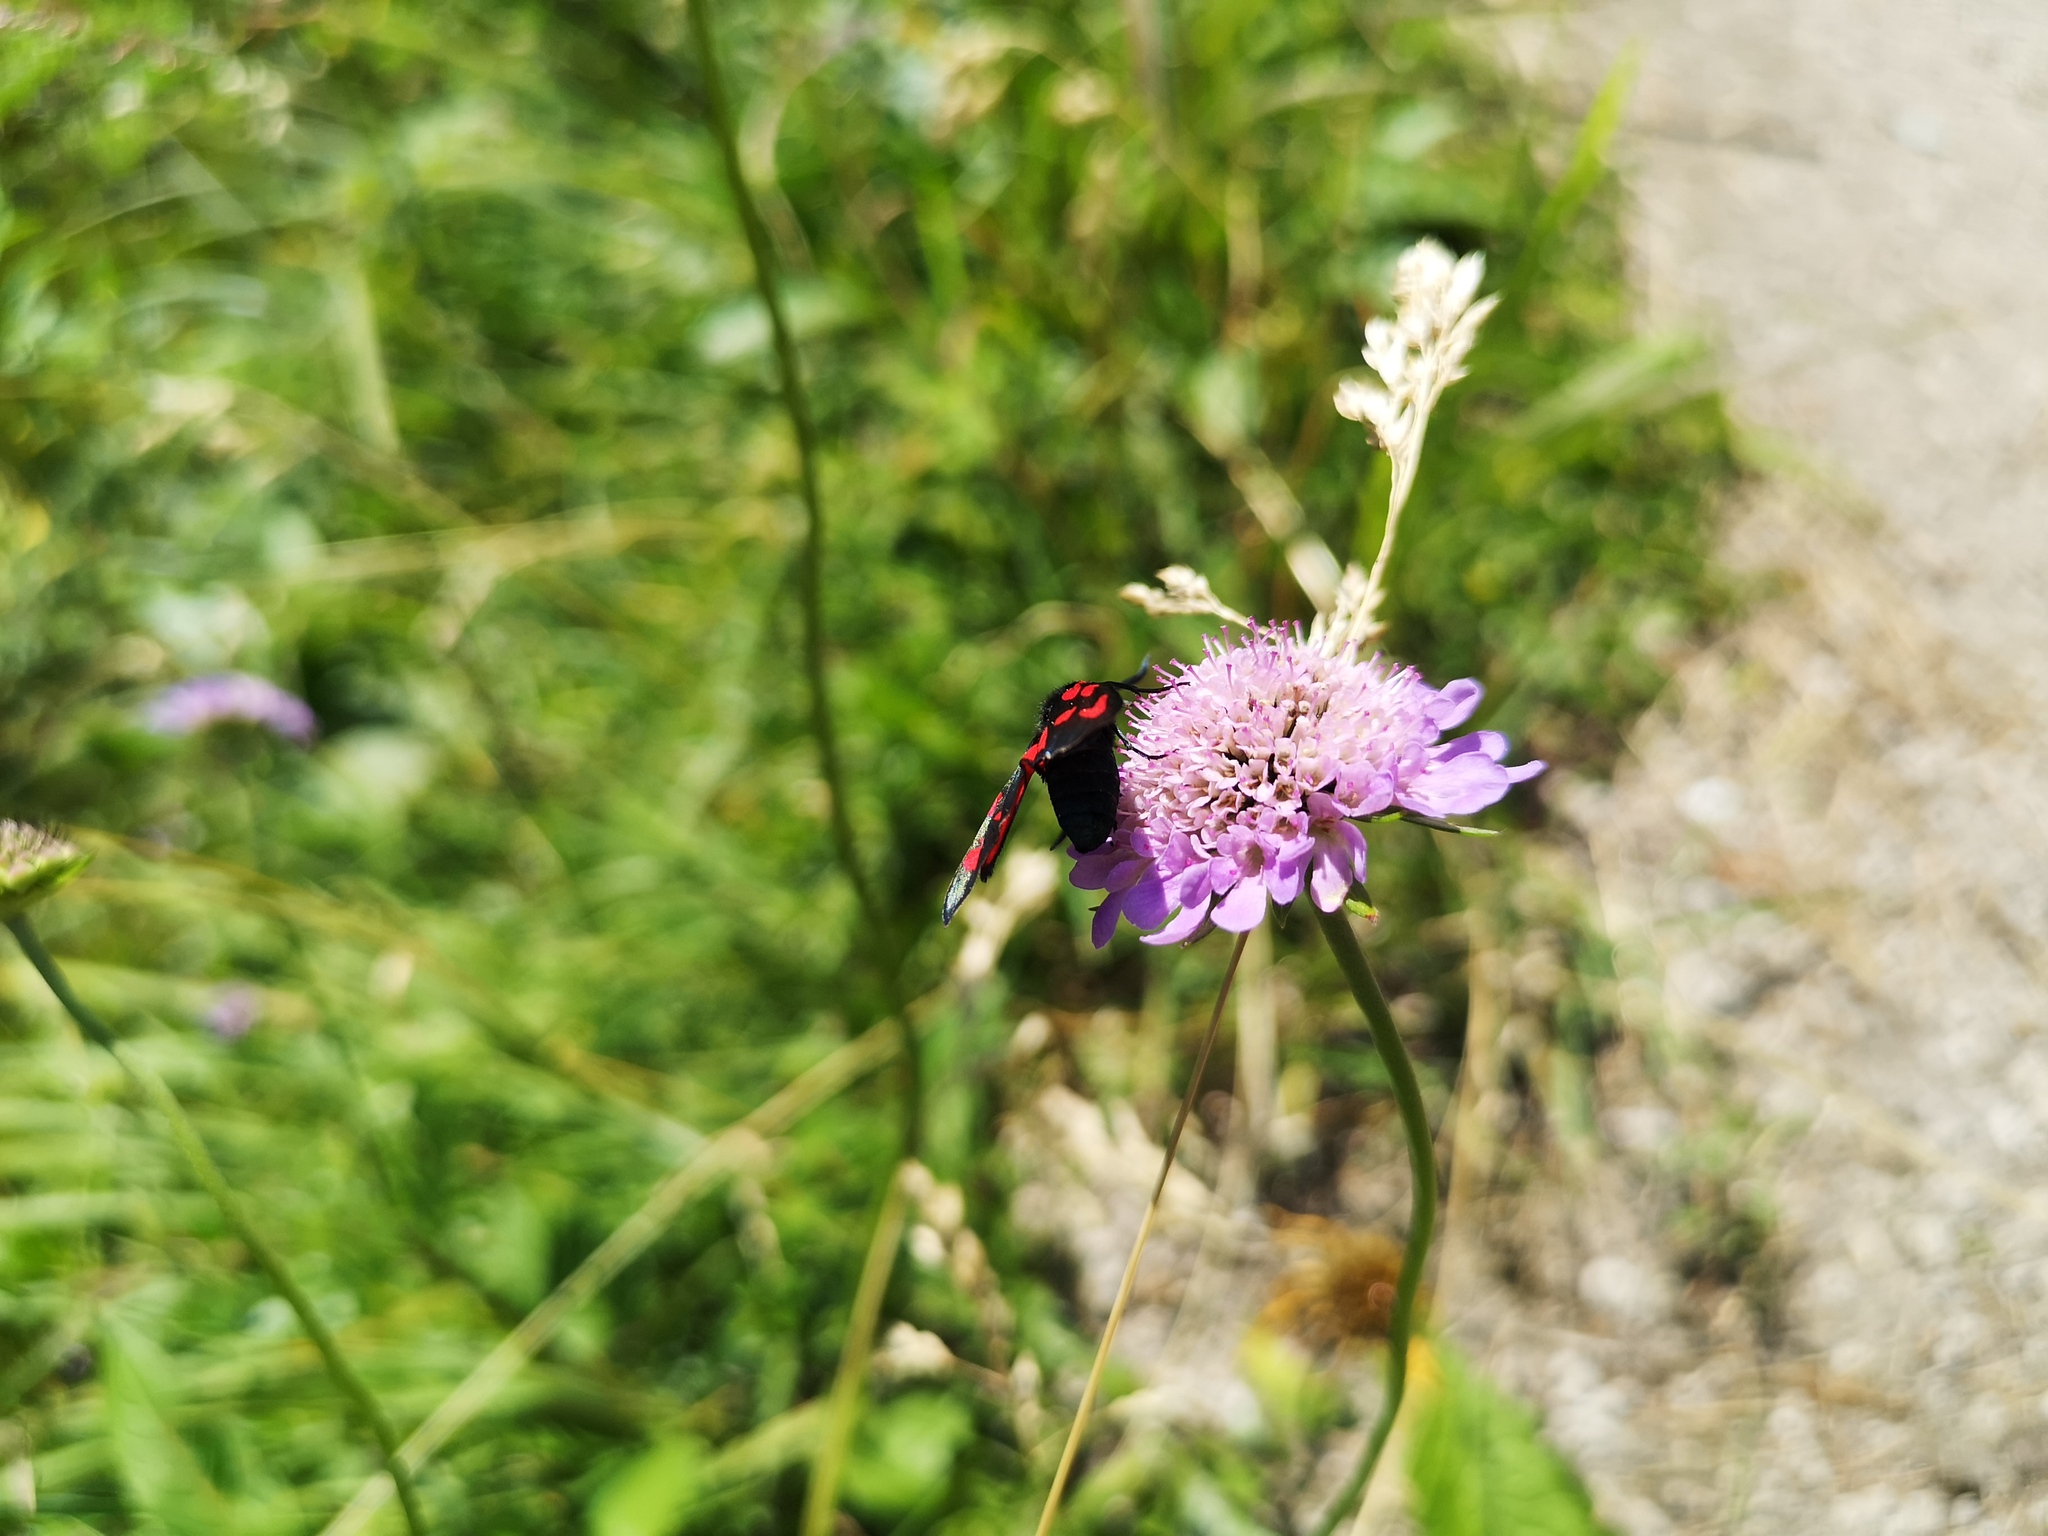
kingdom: Plantae
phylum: Tracheophyta
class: Magnoliopsida
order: Dipsacales
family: Caprifoliaceae
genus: Scabiosa
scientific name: Scabiosa lucida
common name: Shining scabious
